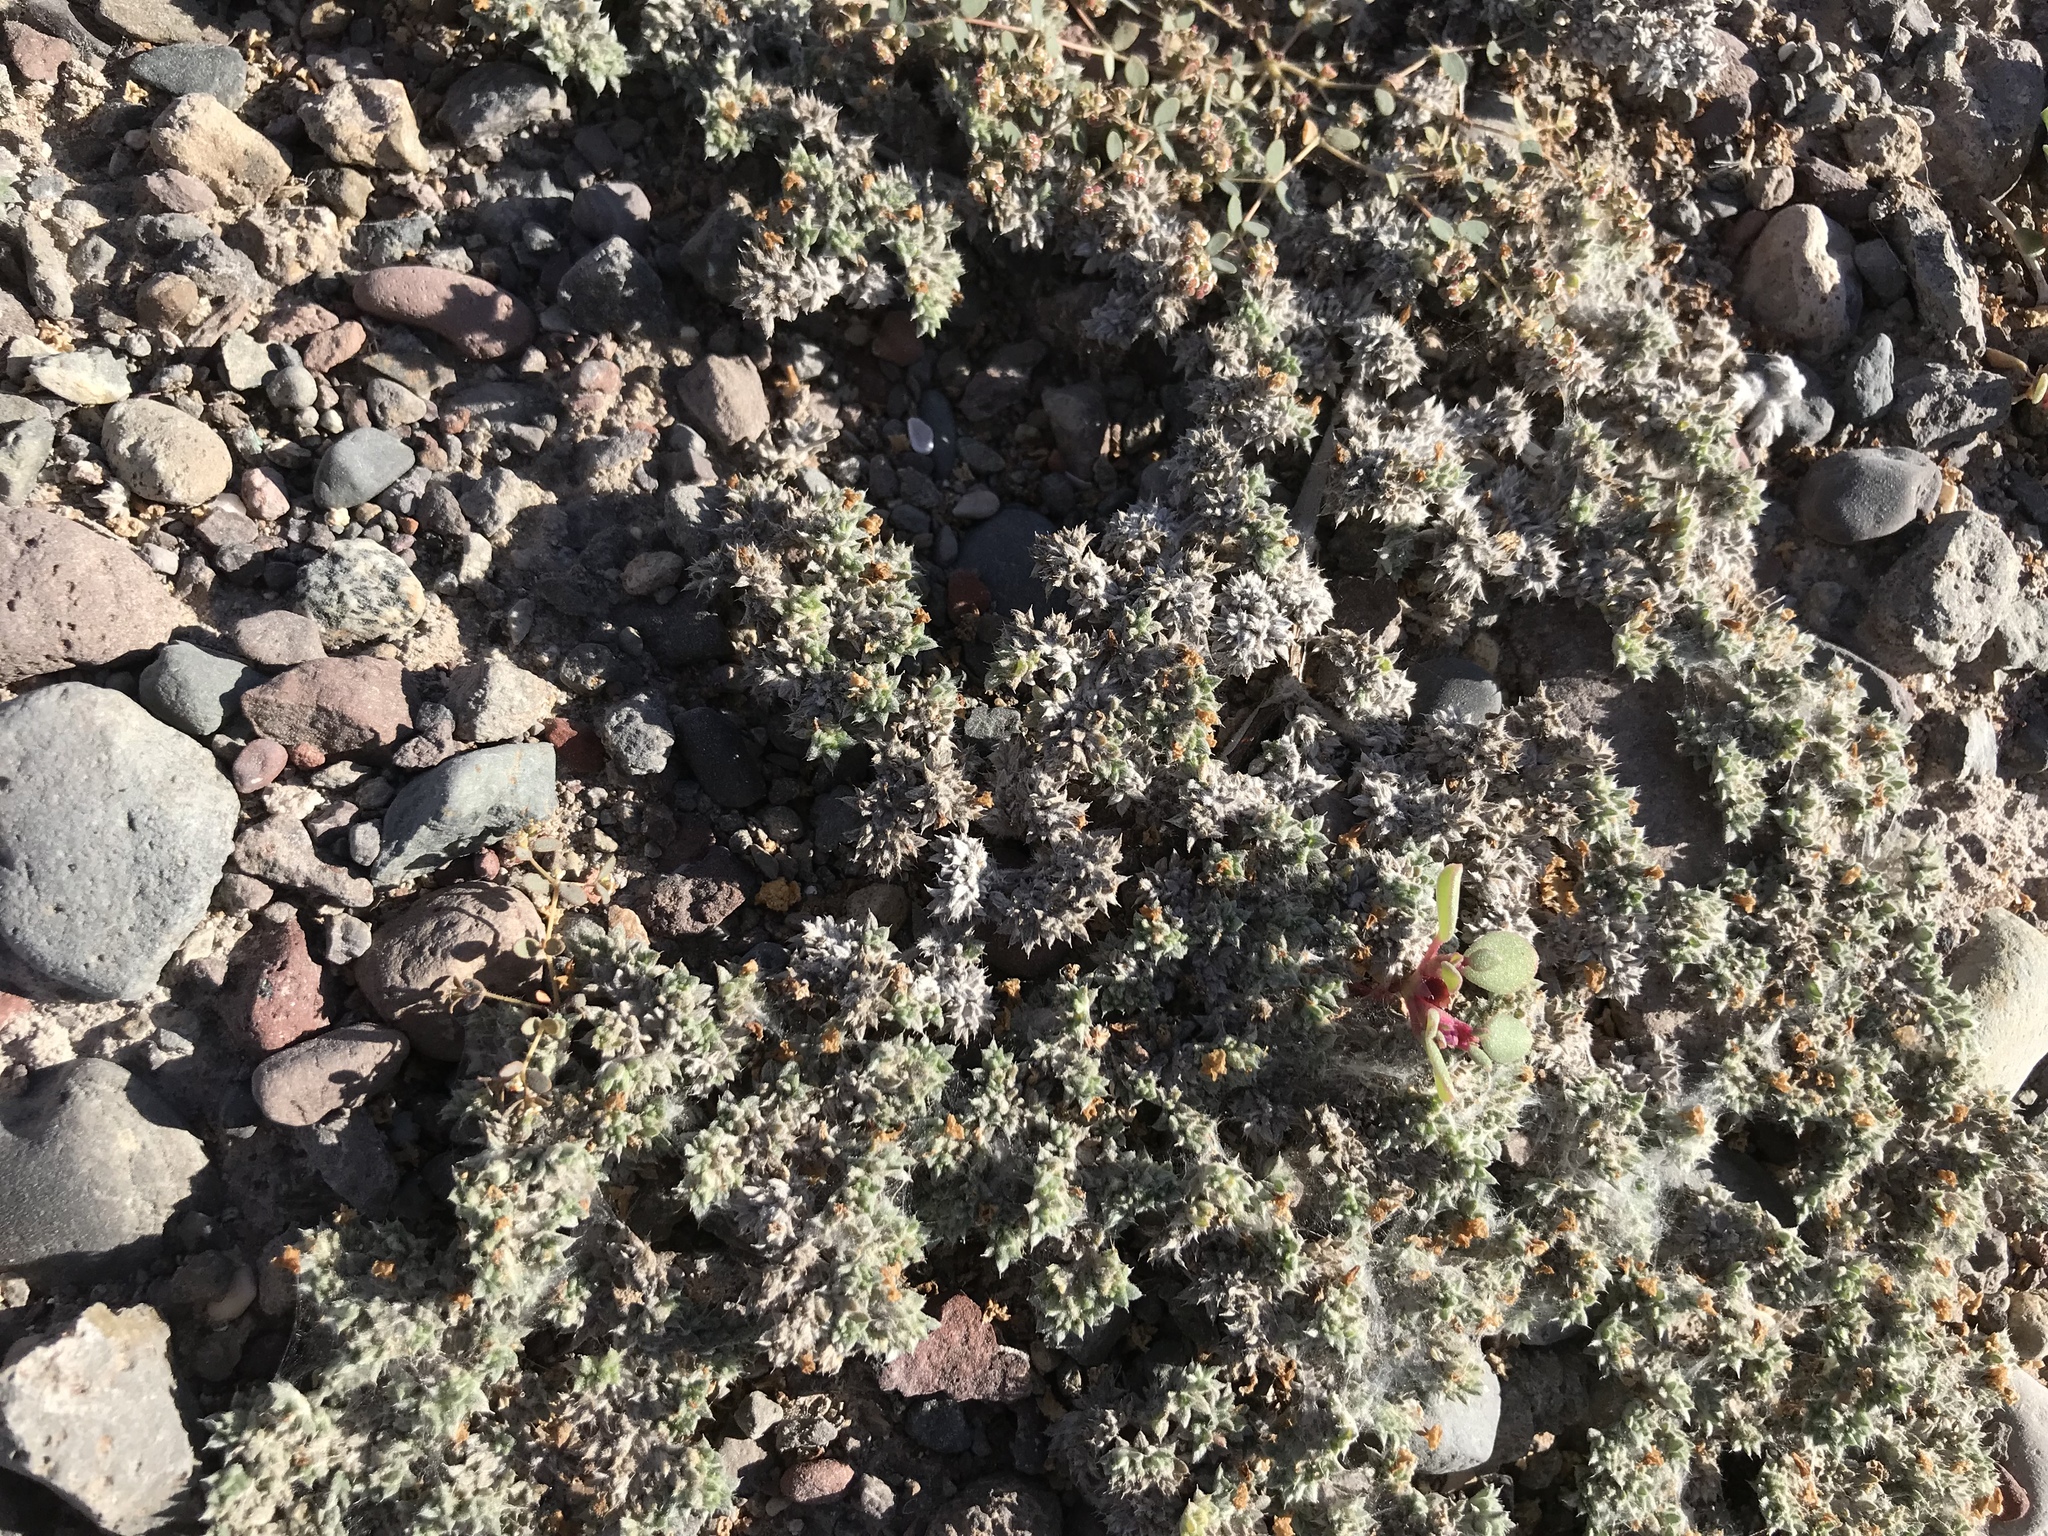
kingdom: Plantae
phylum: Tracheophyta
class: Magnoliopsida
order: Boraginales
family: Ehretiaceae
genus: Tiquilia
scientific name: Tiquilia cuspidata
